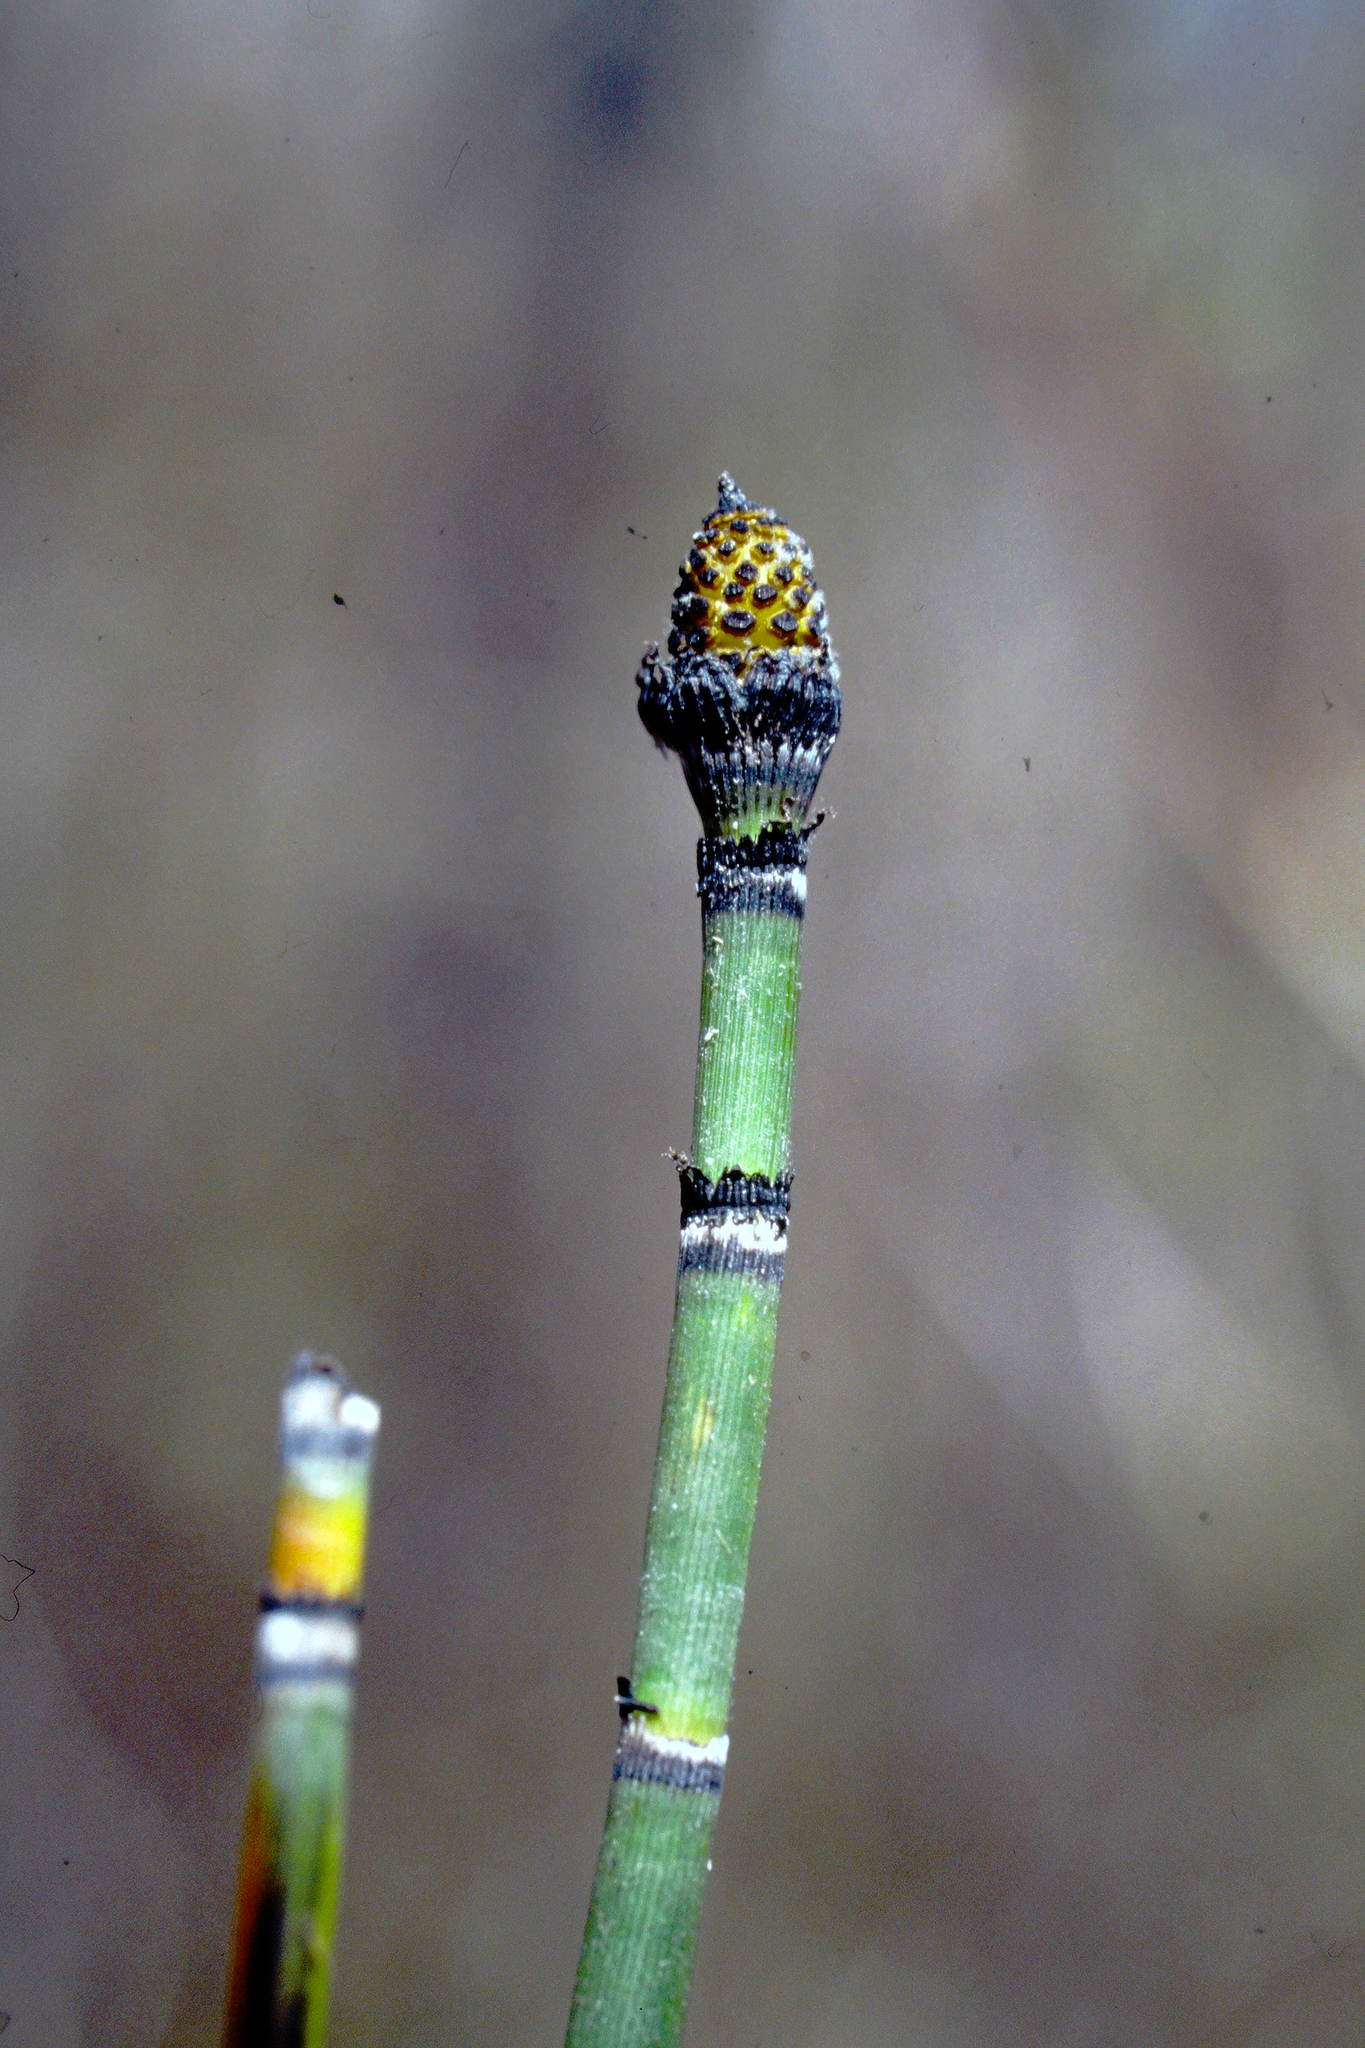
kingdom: Plantae
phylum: Tracheophyta
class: Polypodiopsida
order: Equisetales
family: Equisetaceae
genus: Equisetum
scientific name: Equisetum praealtum
